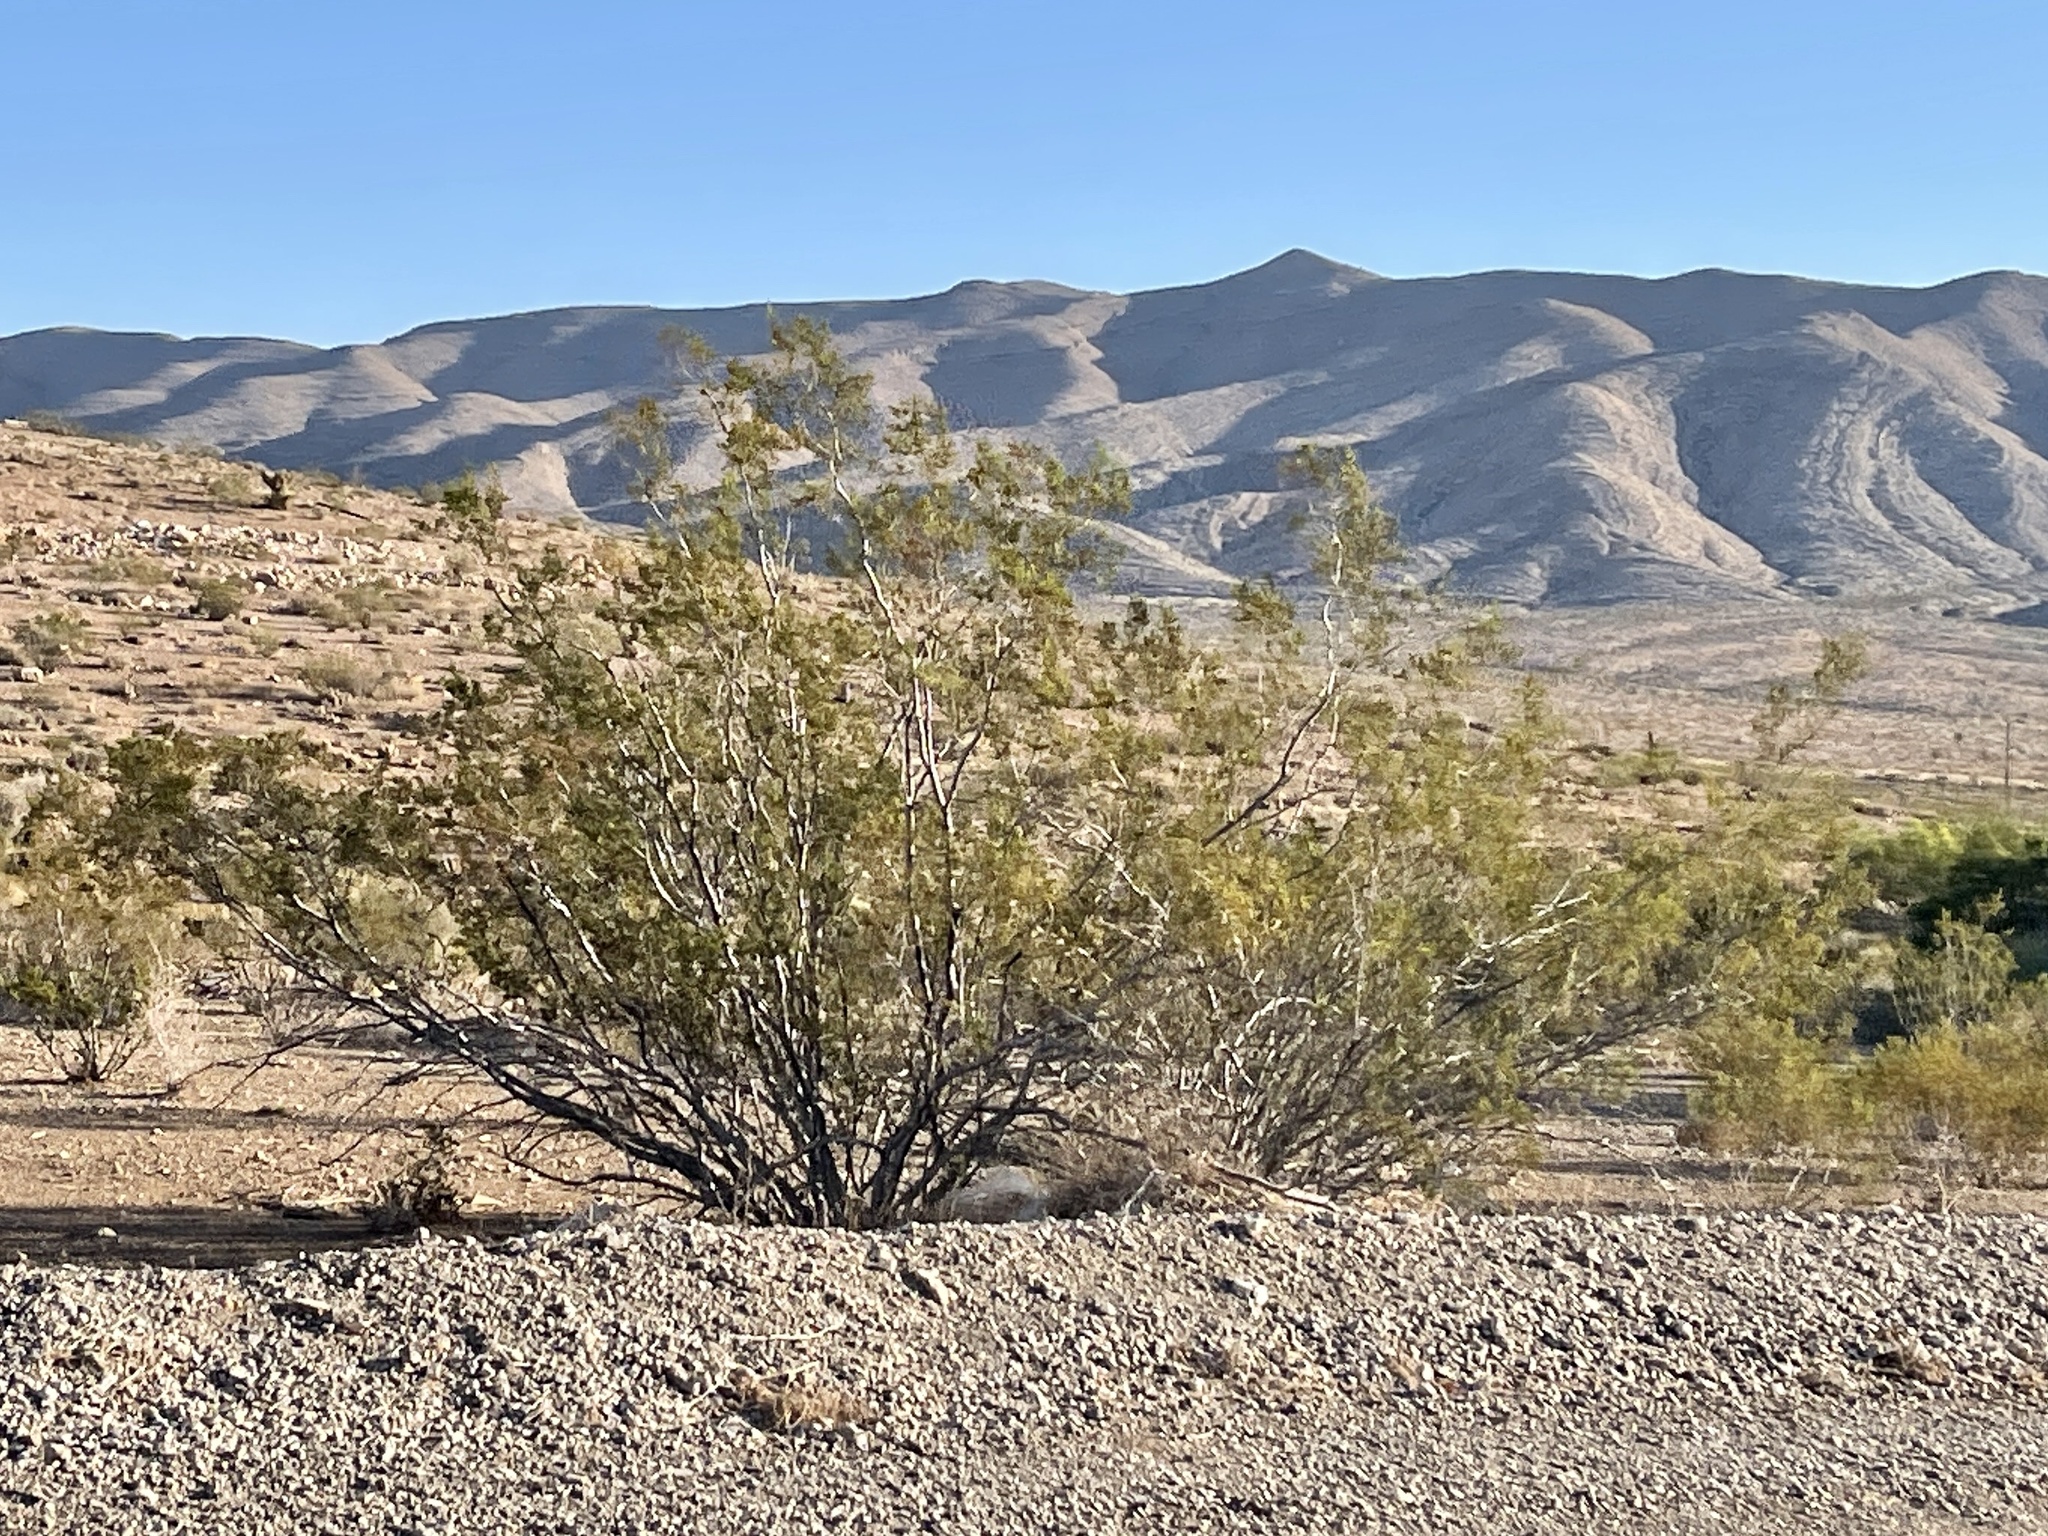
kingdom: Plantae
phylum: Tracheophyta
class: Magnoliopsida
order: Zygophyllales
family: Zygophyllaceae
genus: Larrea
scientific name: Larrea tridentata
